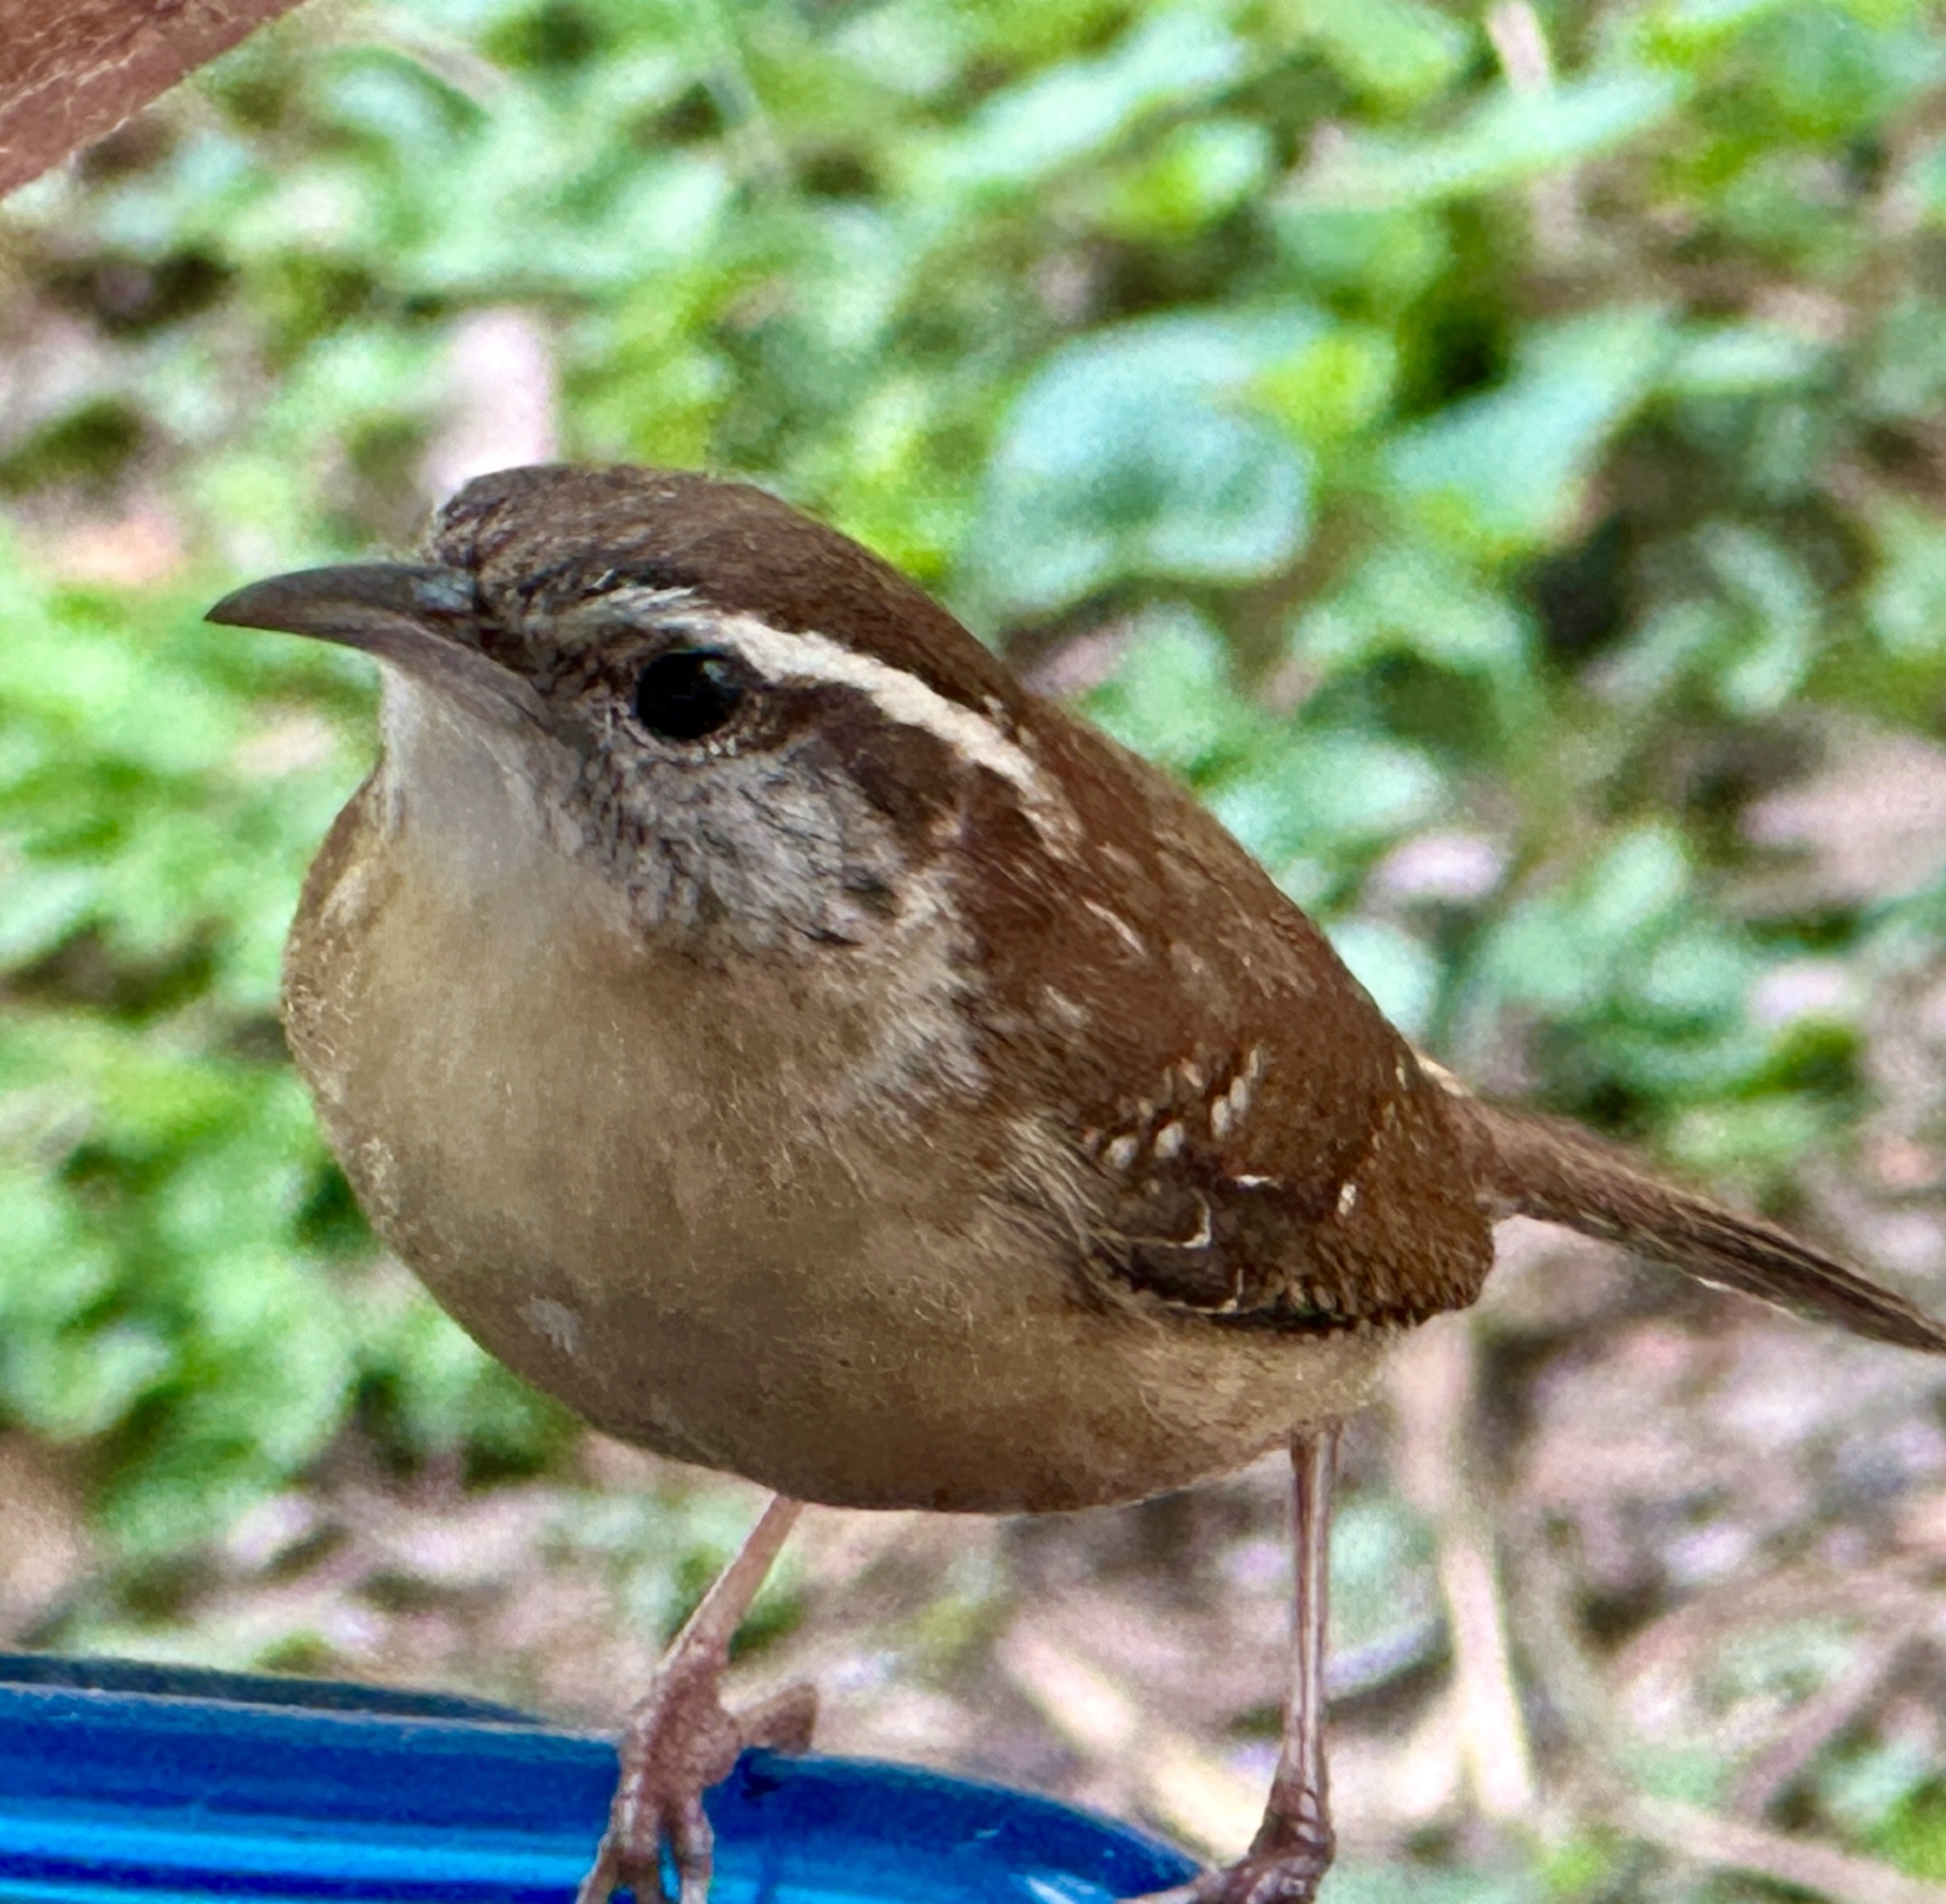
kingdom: Animalia
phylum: Chordata
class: Aves
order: Passeriformes
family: Troglodytidae
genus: Thryothorus
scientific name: Thryothorus ludovicianus
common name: Carolina wren
